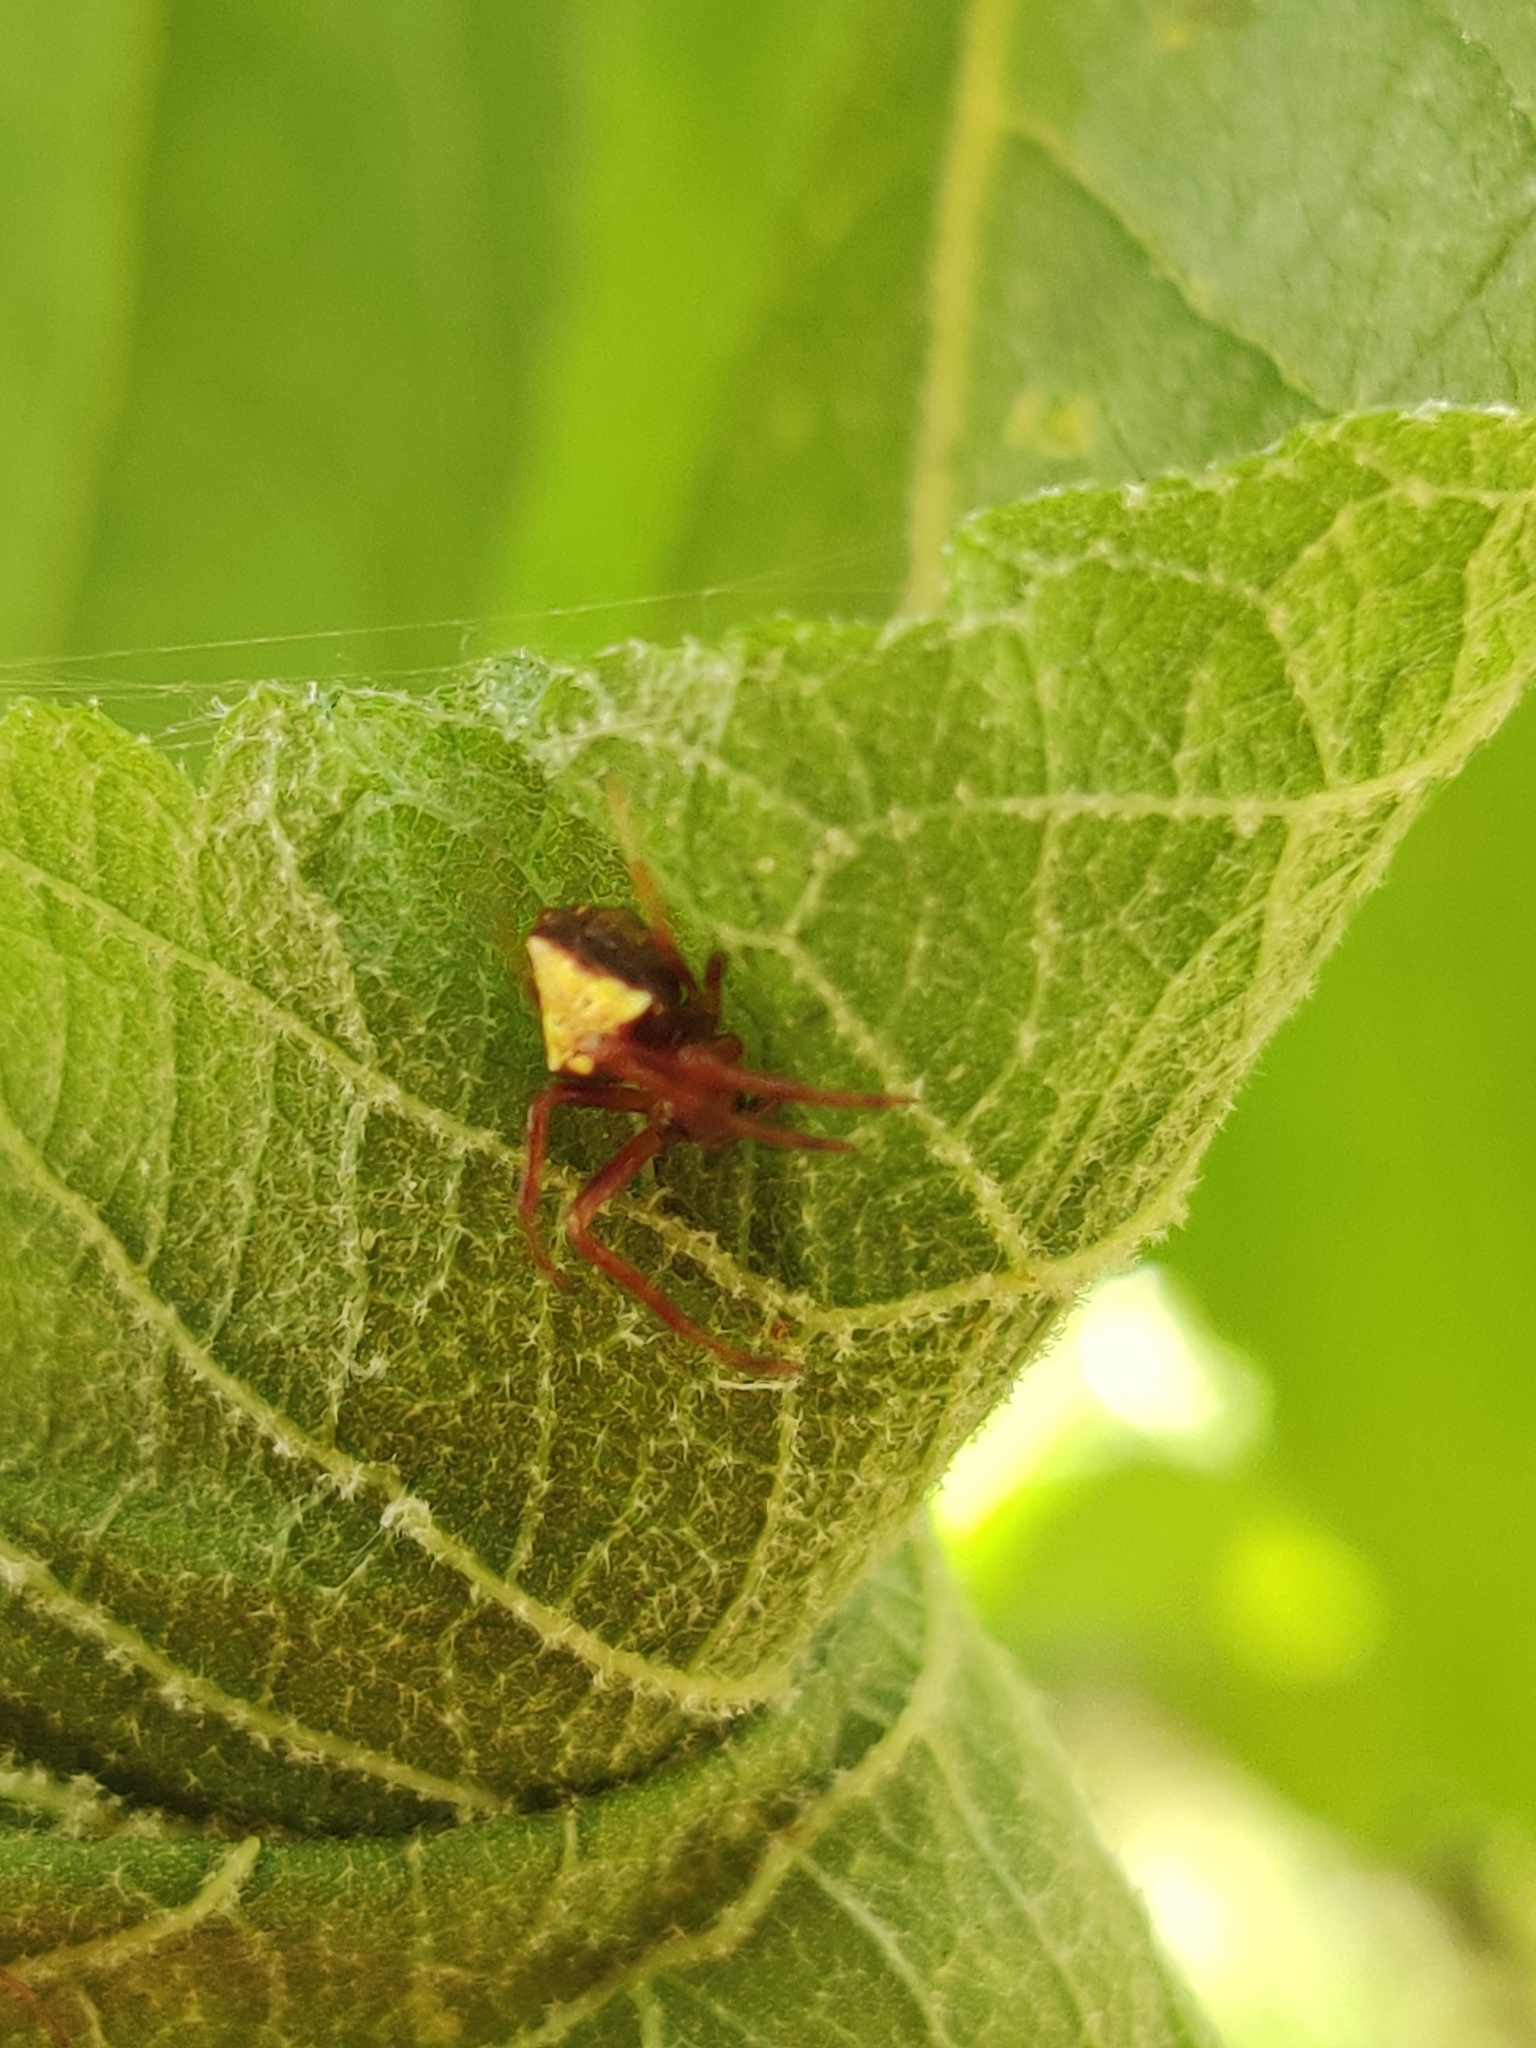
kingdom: Animalia
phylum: Arthropoda
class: Arachnida
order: Araneae
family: Araneidae
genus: Verrucosa
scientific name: Verrucosa arenata
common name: Orb weavers
